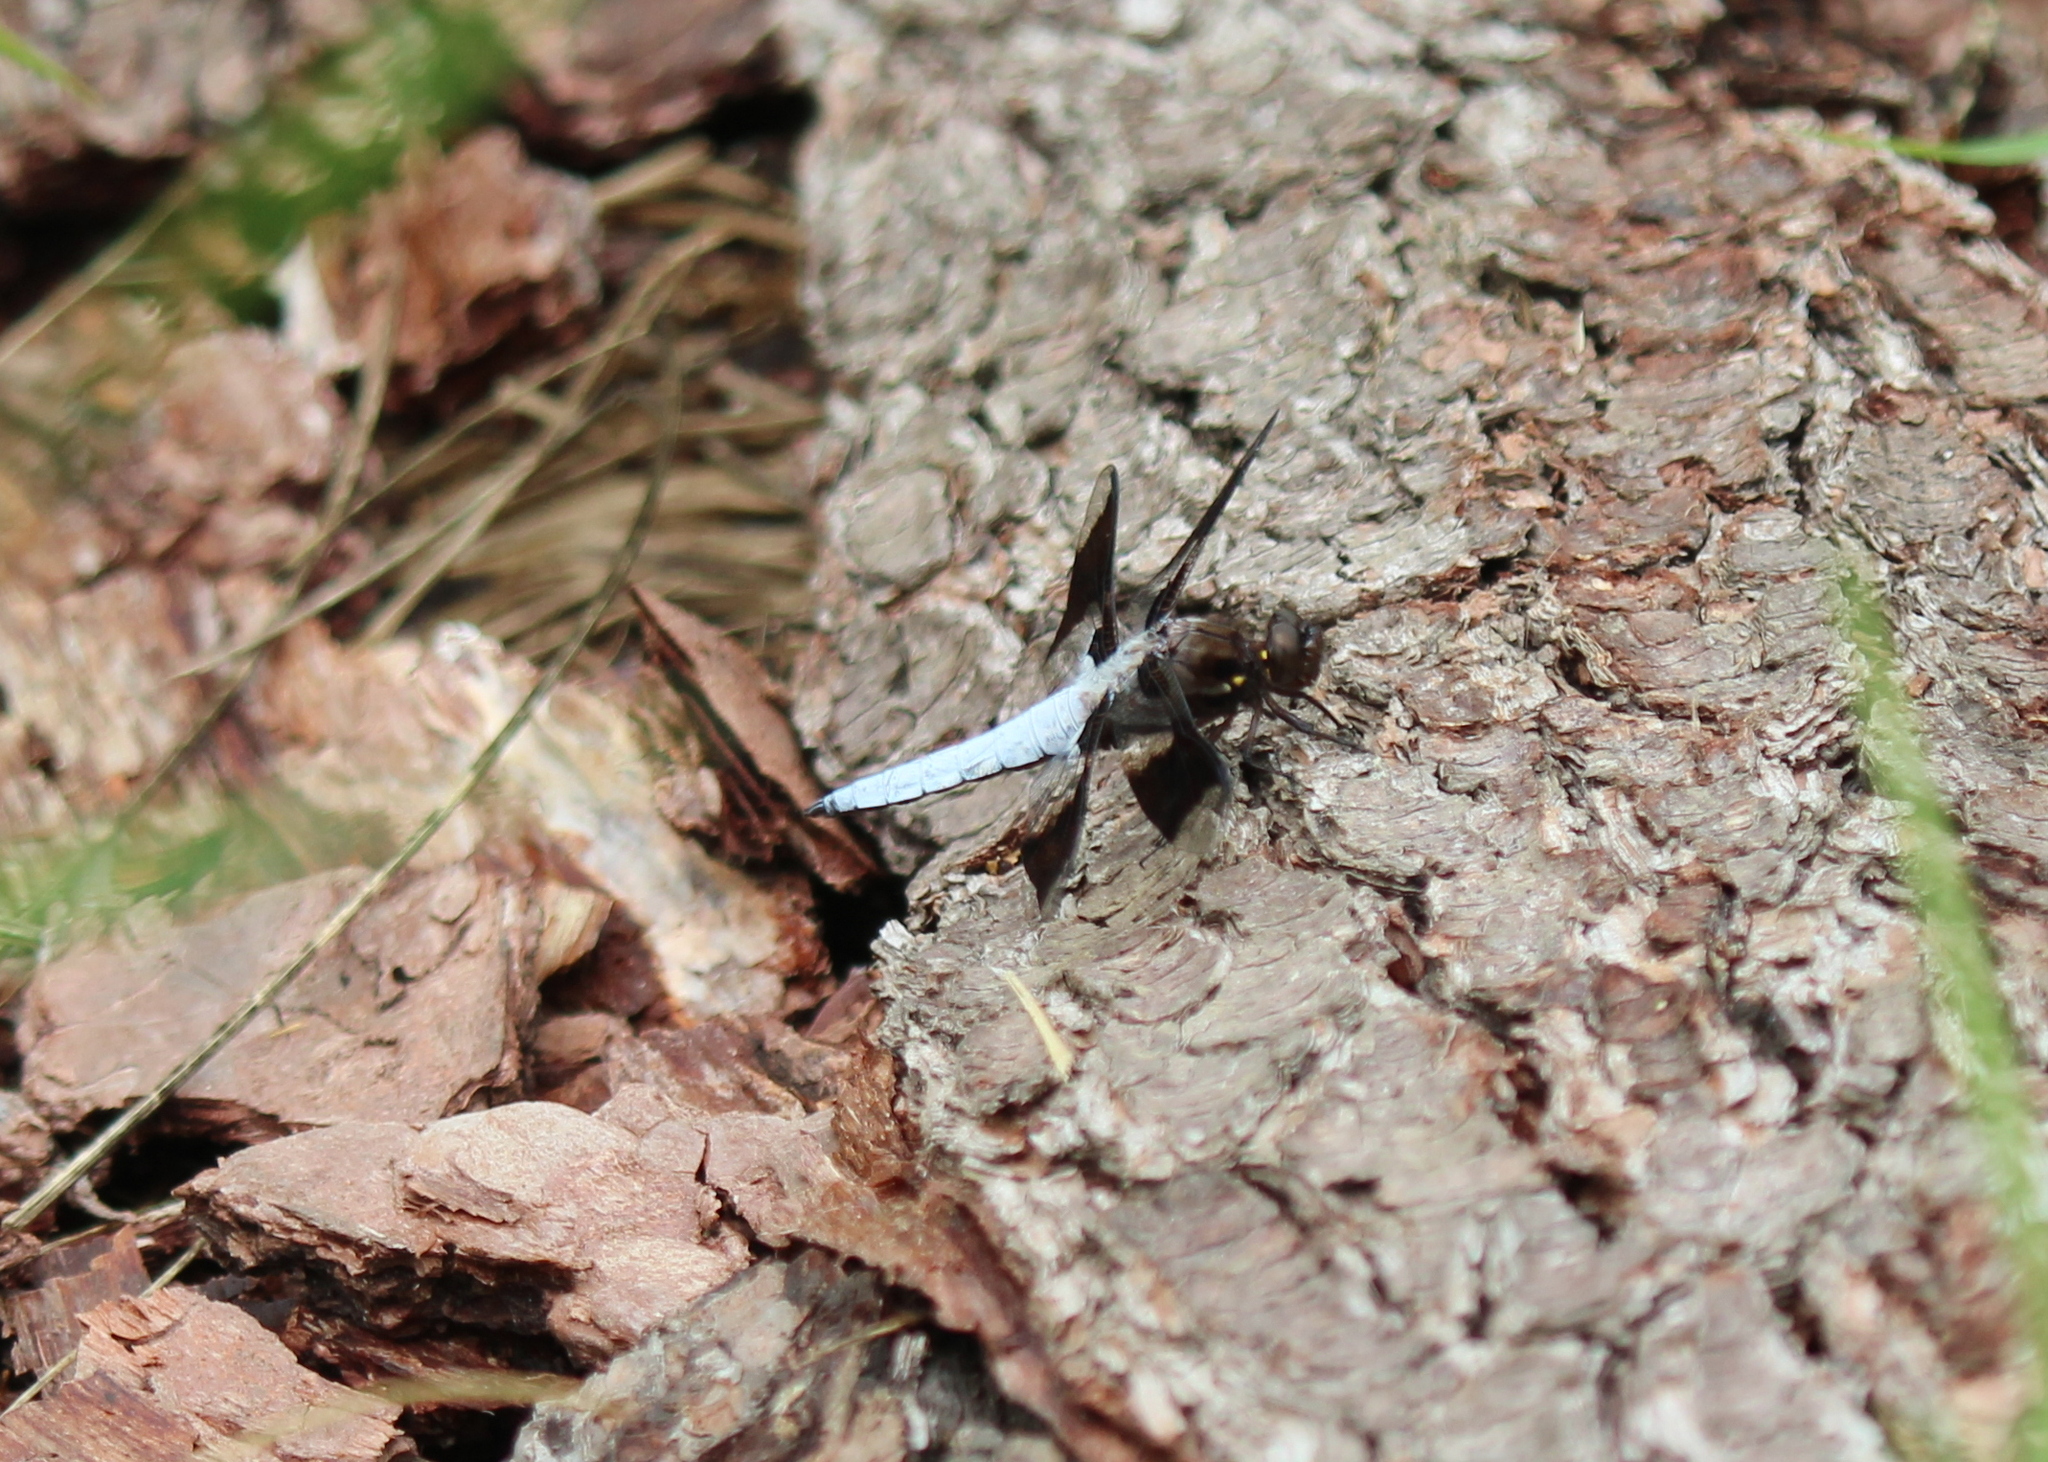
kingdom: Animalia
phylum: Arthropoda
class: Insecta
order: Odonata
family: Libellulidae
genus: Plathemis
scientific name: Plathemis lydia
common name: Common whitetail
